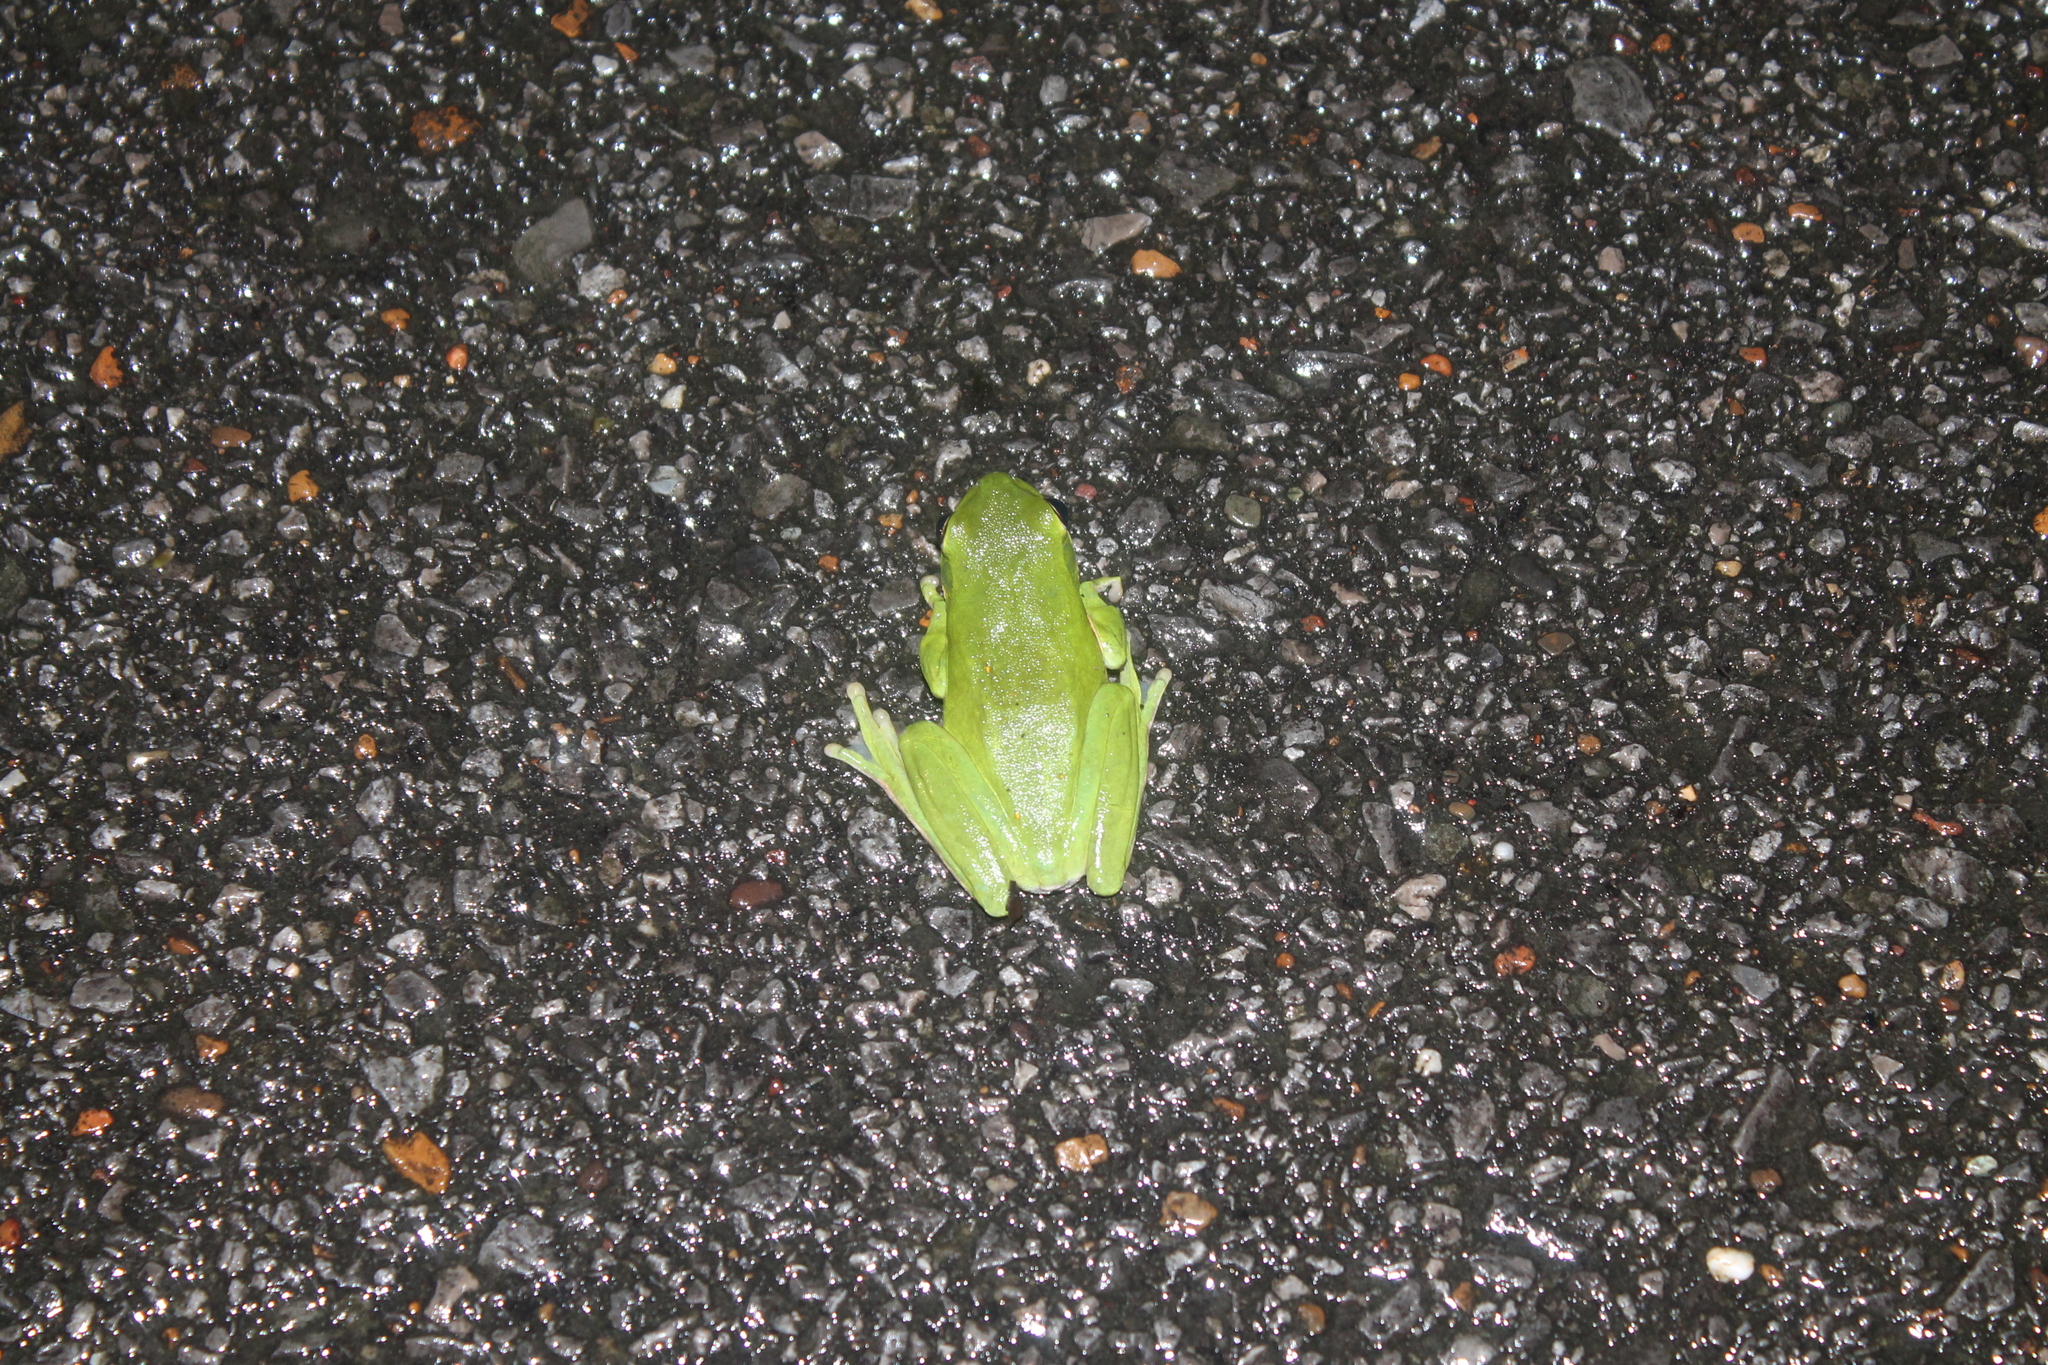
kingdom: Animalia
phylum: Chordata
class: Amphibia
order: Anura
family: Hylidae
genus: Dryophytes
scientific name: Dryophytes cinereus
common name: Green treefrog
